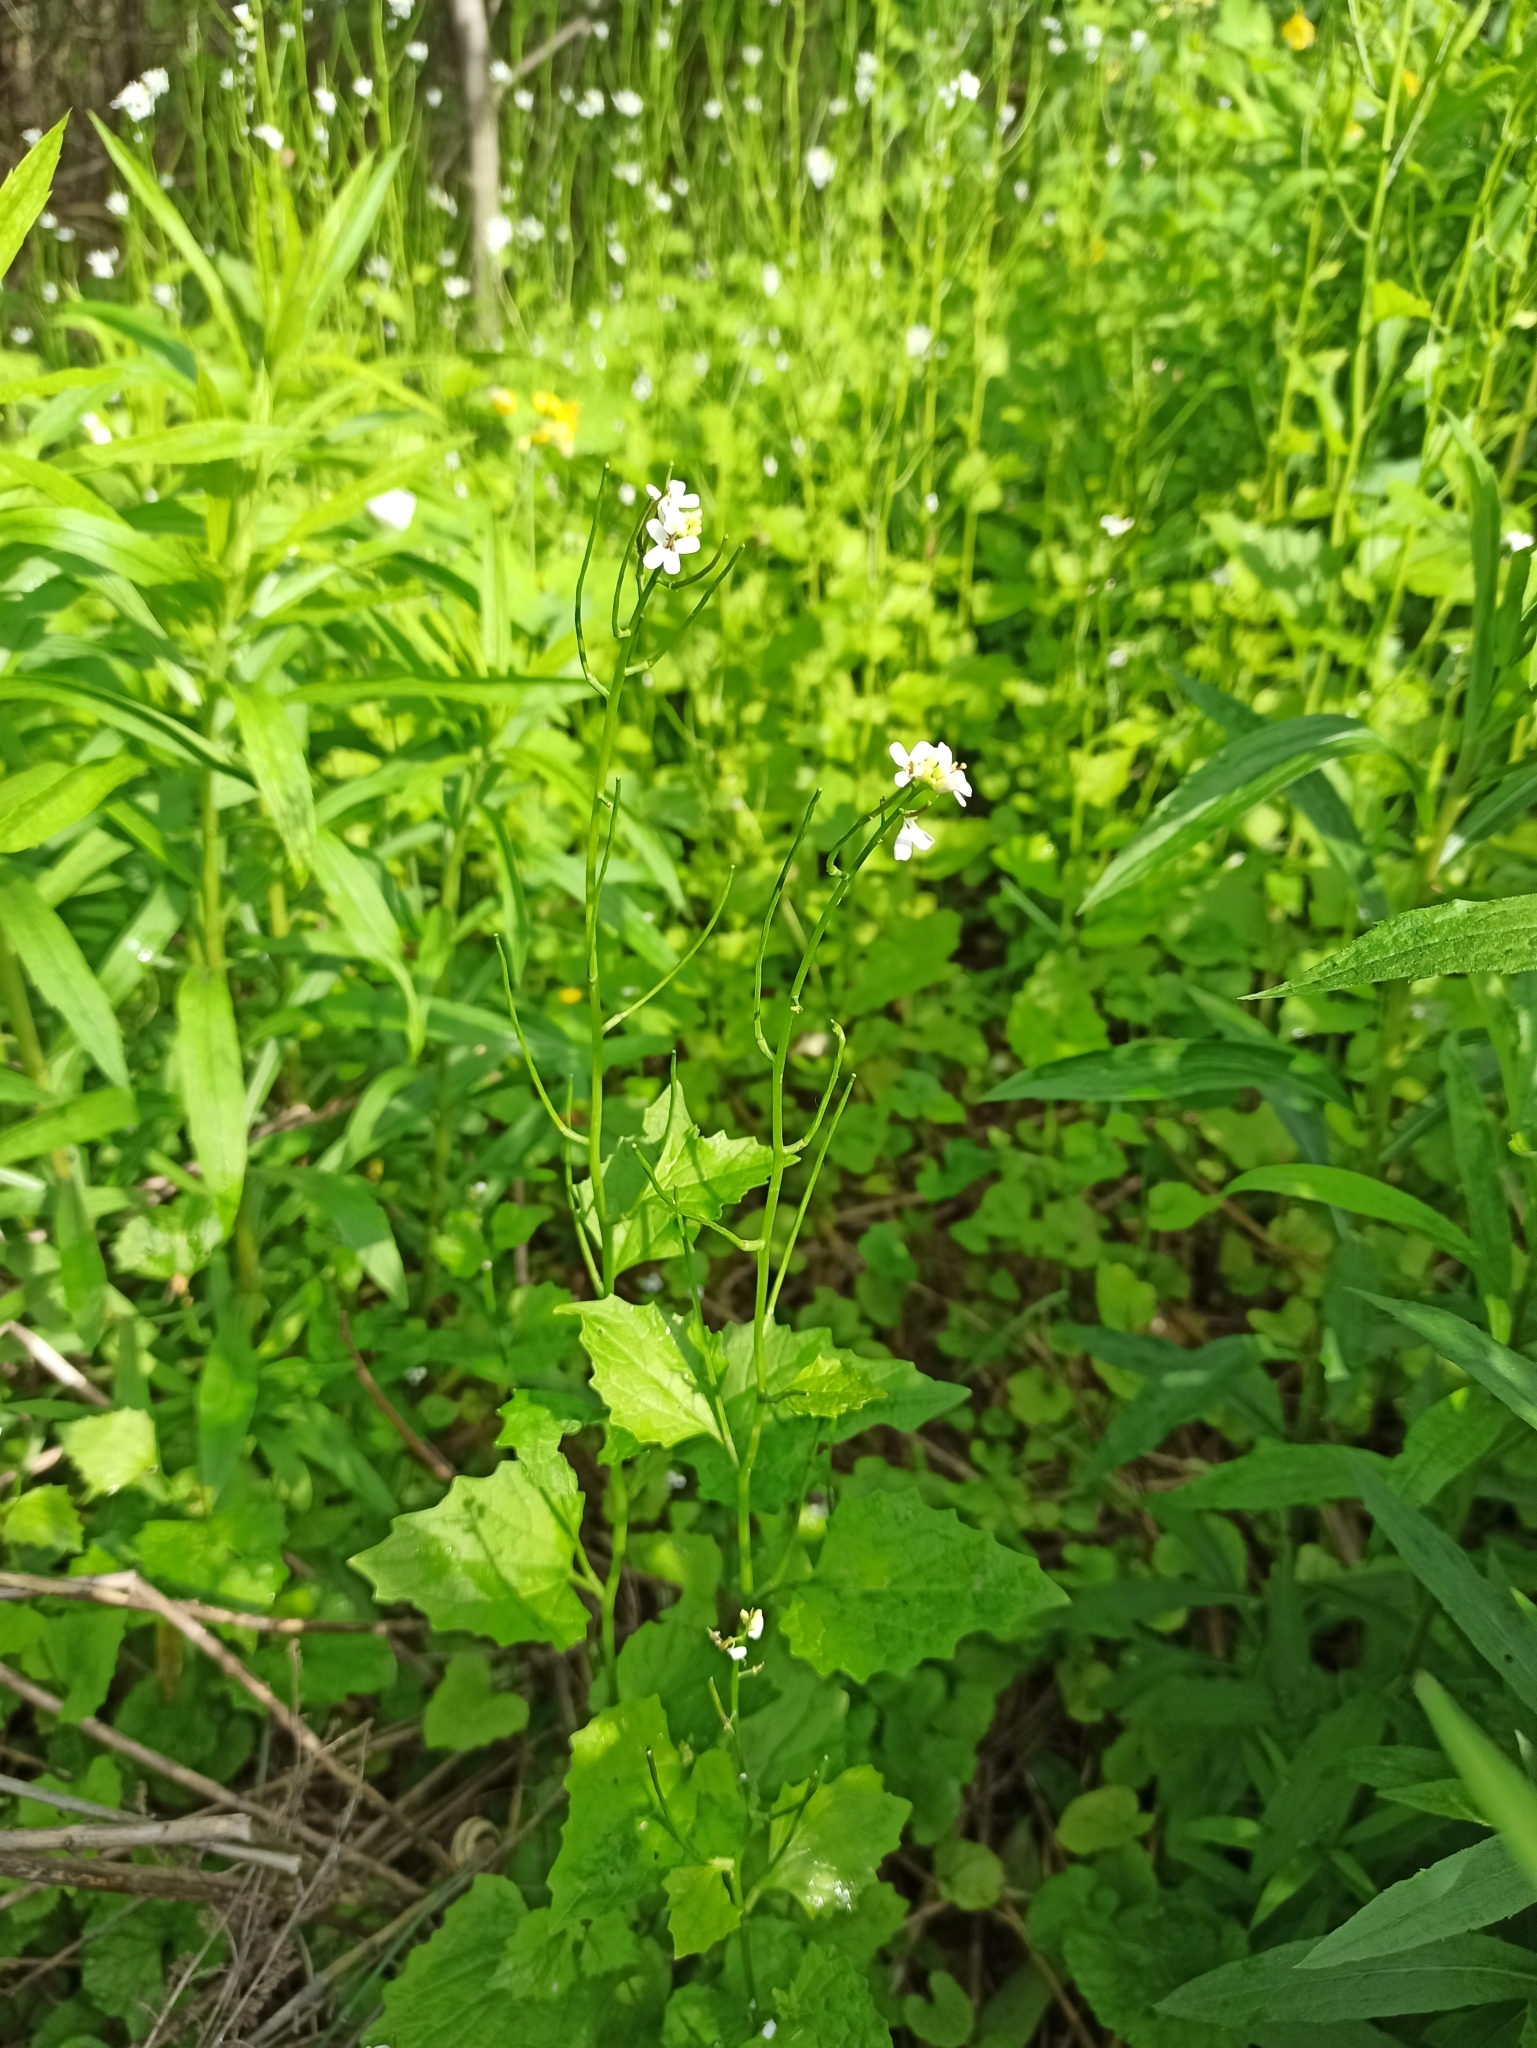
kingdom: Plantae
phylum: Tracheophyta
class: Magnoliopsida
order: Brassicales
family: Brassicaceae
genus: Alliaria
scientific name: Alliaria petiolata
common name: Garlic mustard
